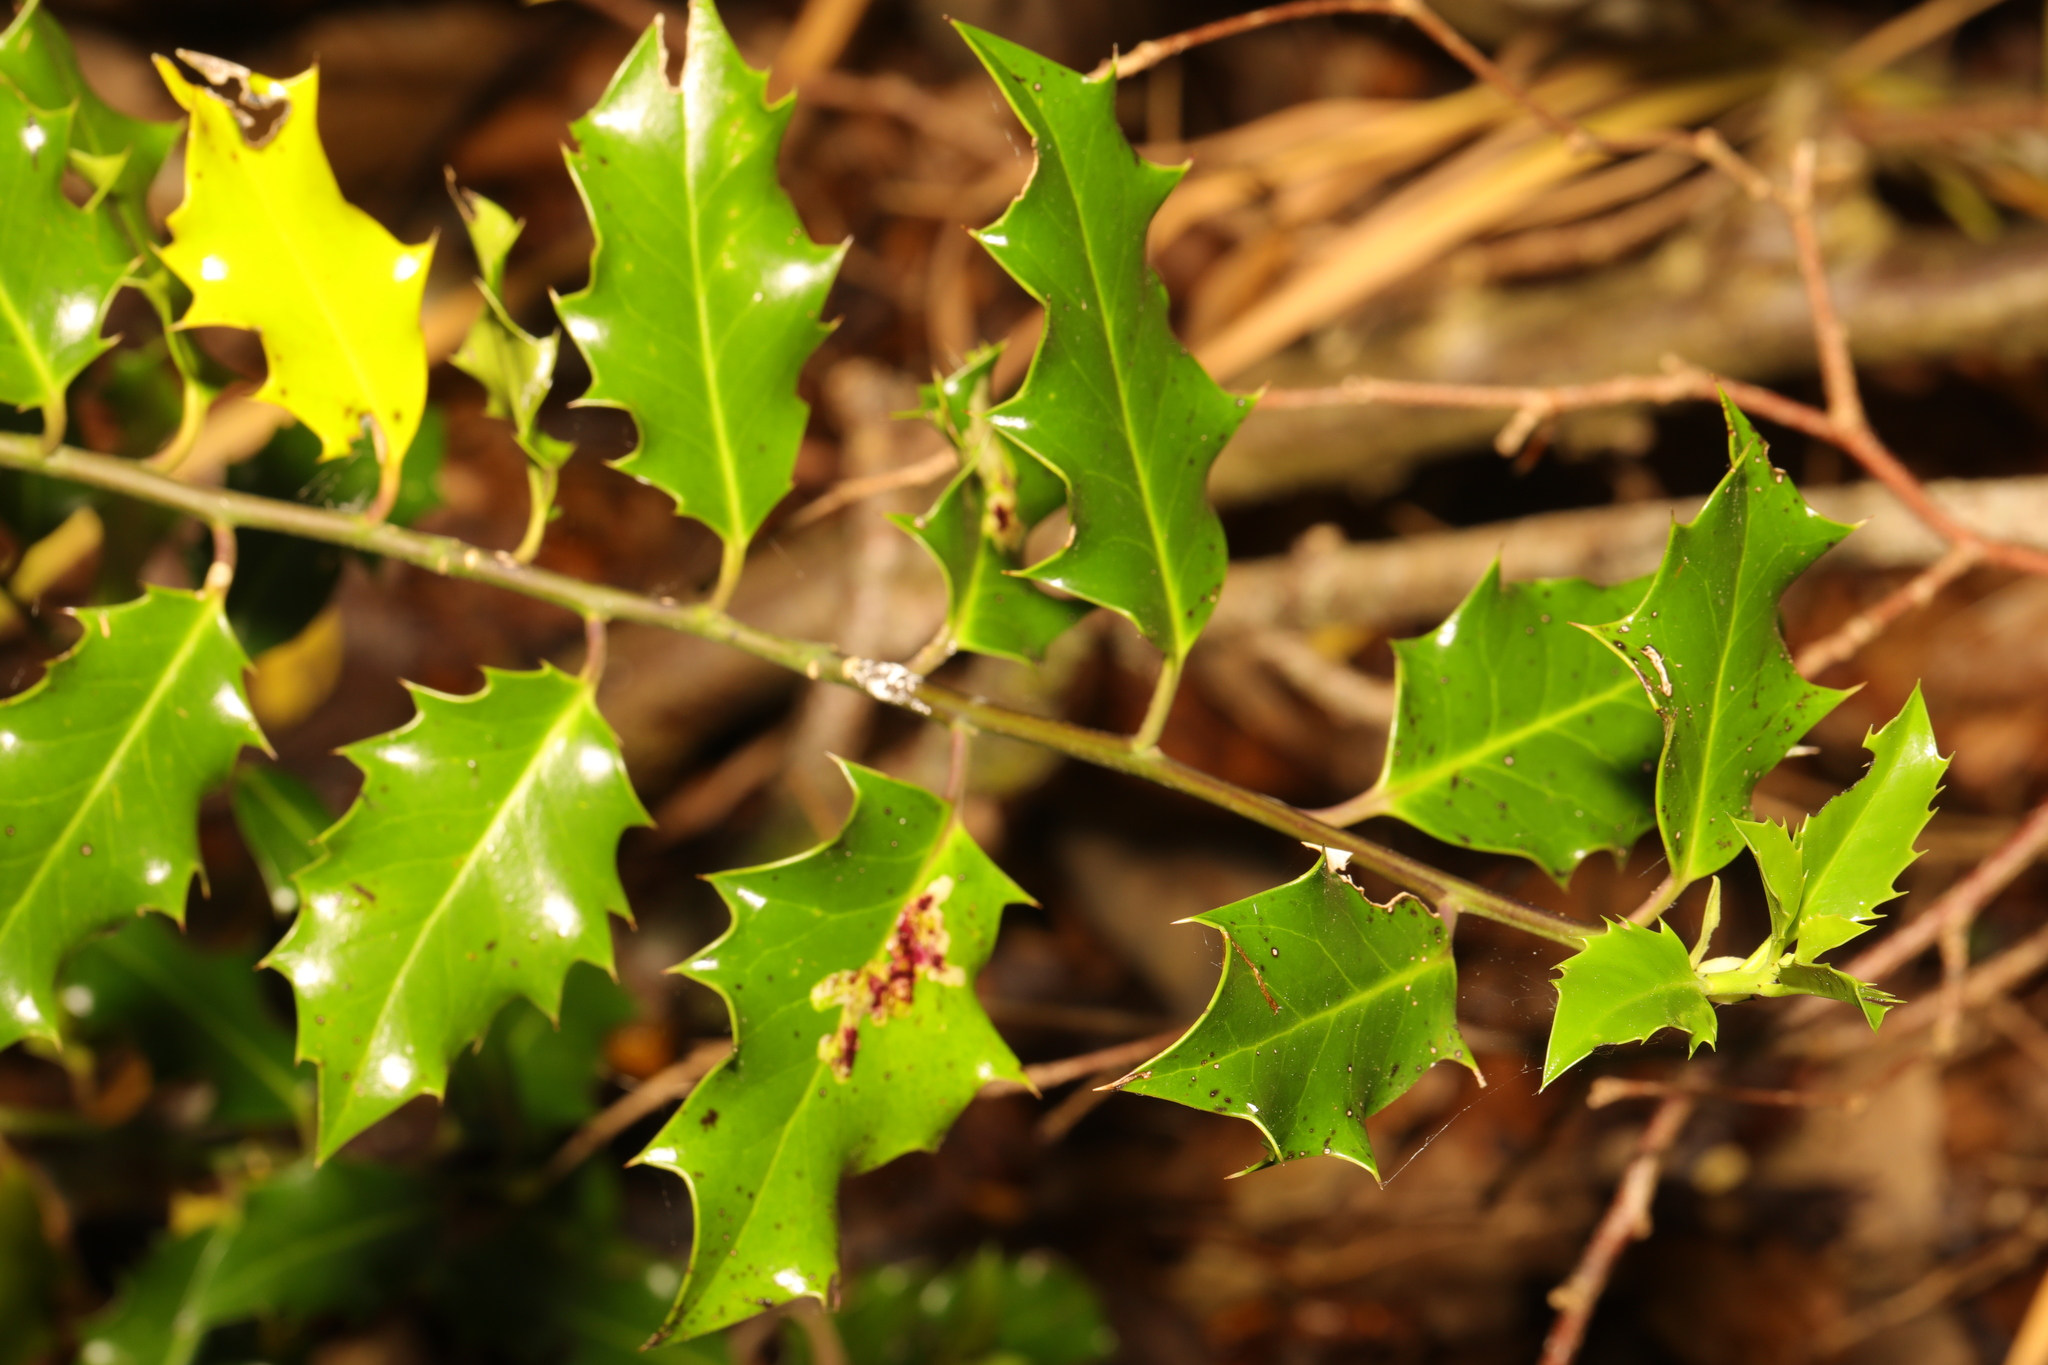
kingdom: Plantae
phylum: Tracheophyta
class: Magnoliopsida
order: Aquifoliales
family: Aquifoliaceae
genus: Ilex
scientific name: Ilex aquifolium
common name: English holly
